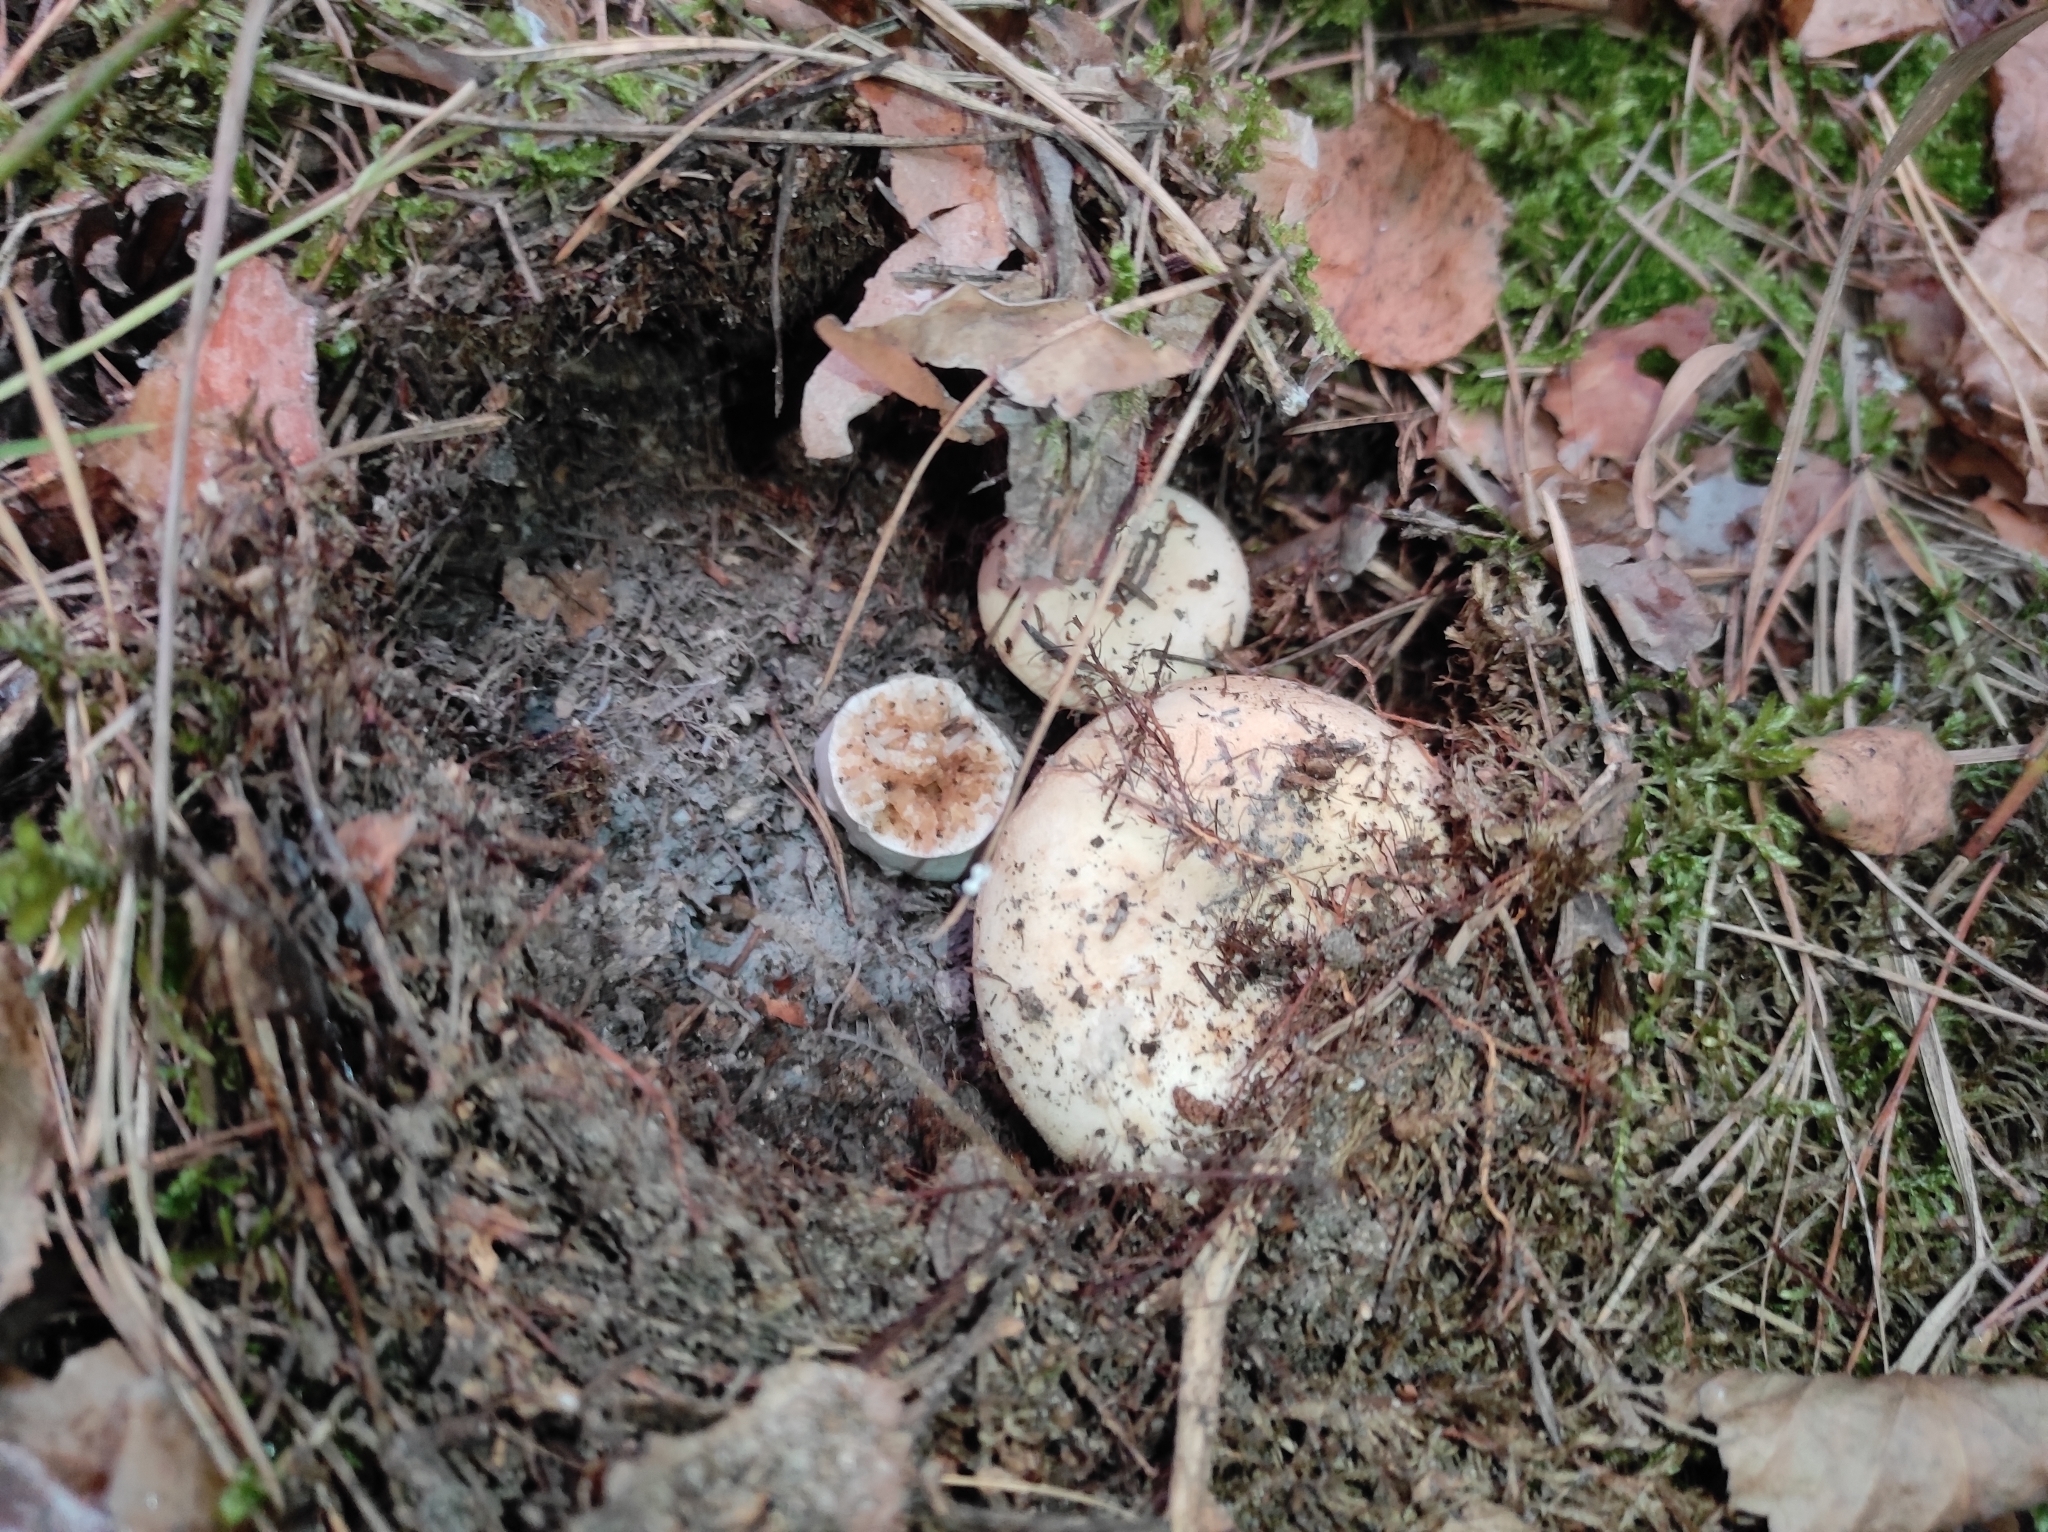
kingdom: Fungi
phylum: Basidiomycota
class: Agaricomycetes
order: Russulales
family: Russulaceae
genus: Russula
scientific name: Russula delica
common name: Milk white brittlegill
